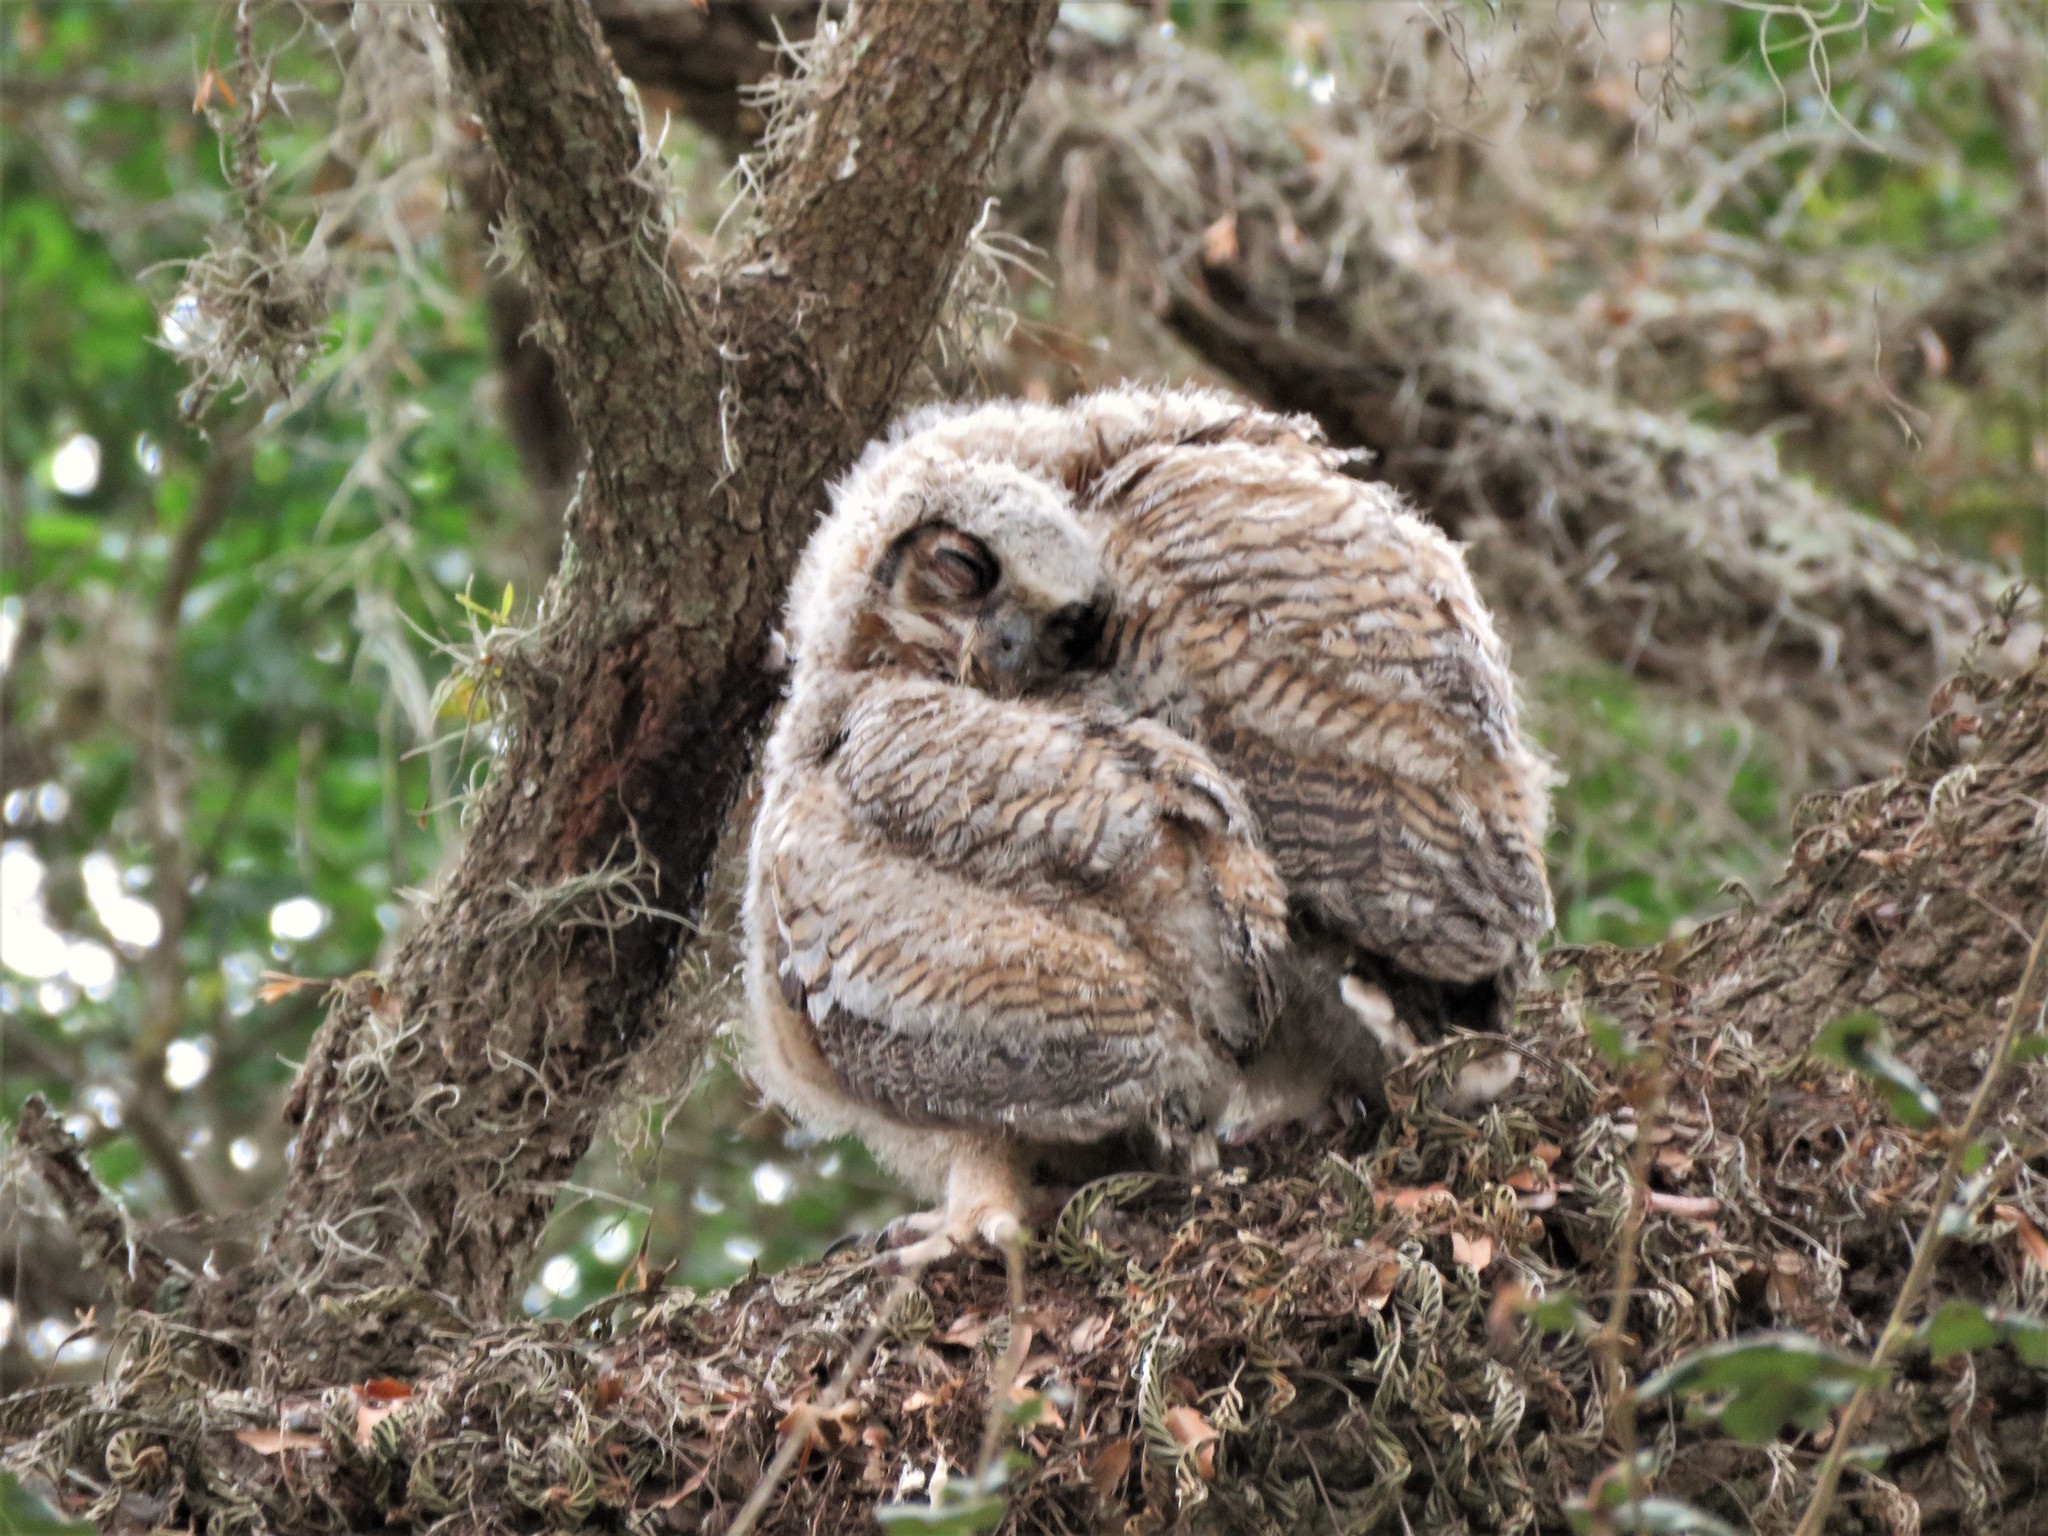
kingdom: Animalia
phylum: Chordata
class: Aves
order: Strigiformes
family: Strigidae
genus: Bubo
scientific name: Bubo virginianus
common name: Great horned owl
